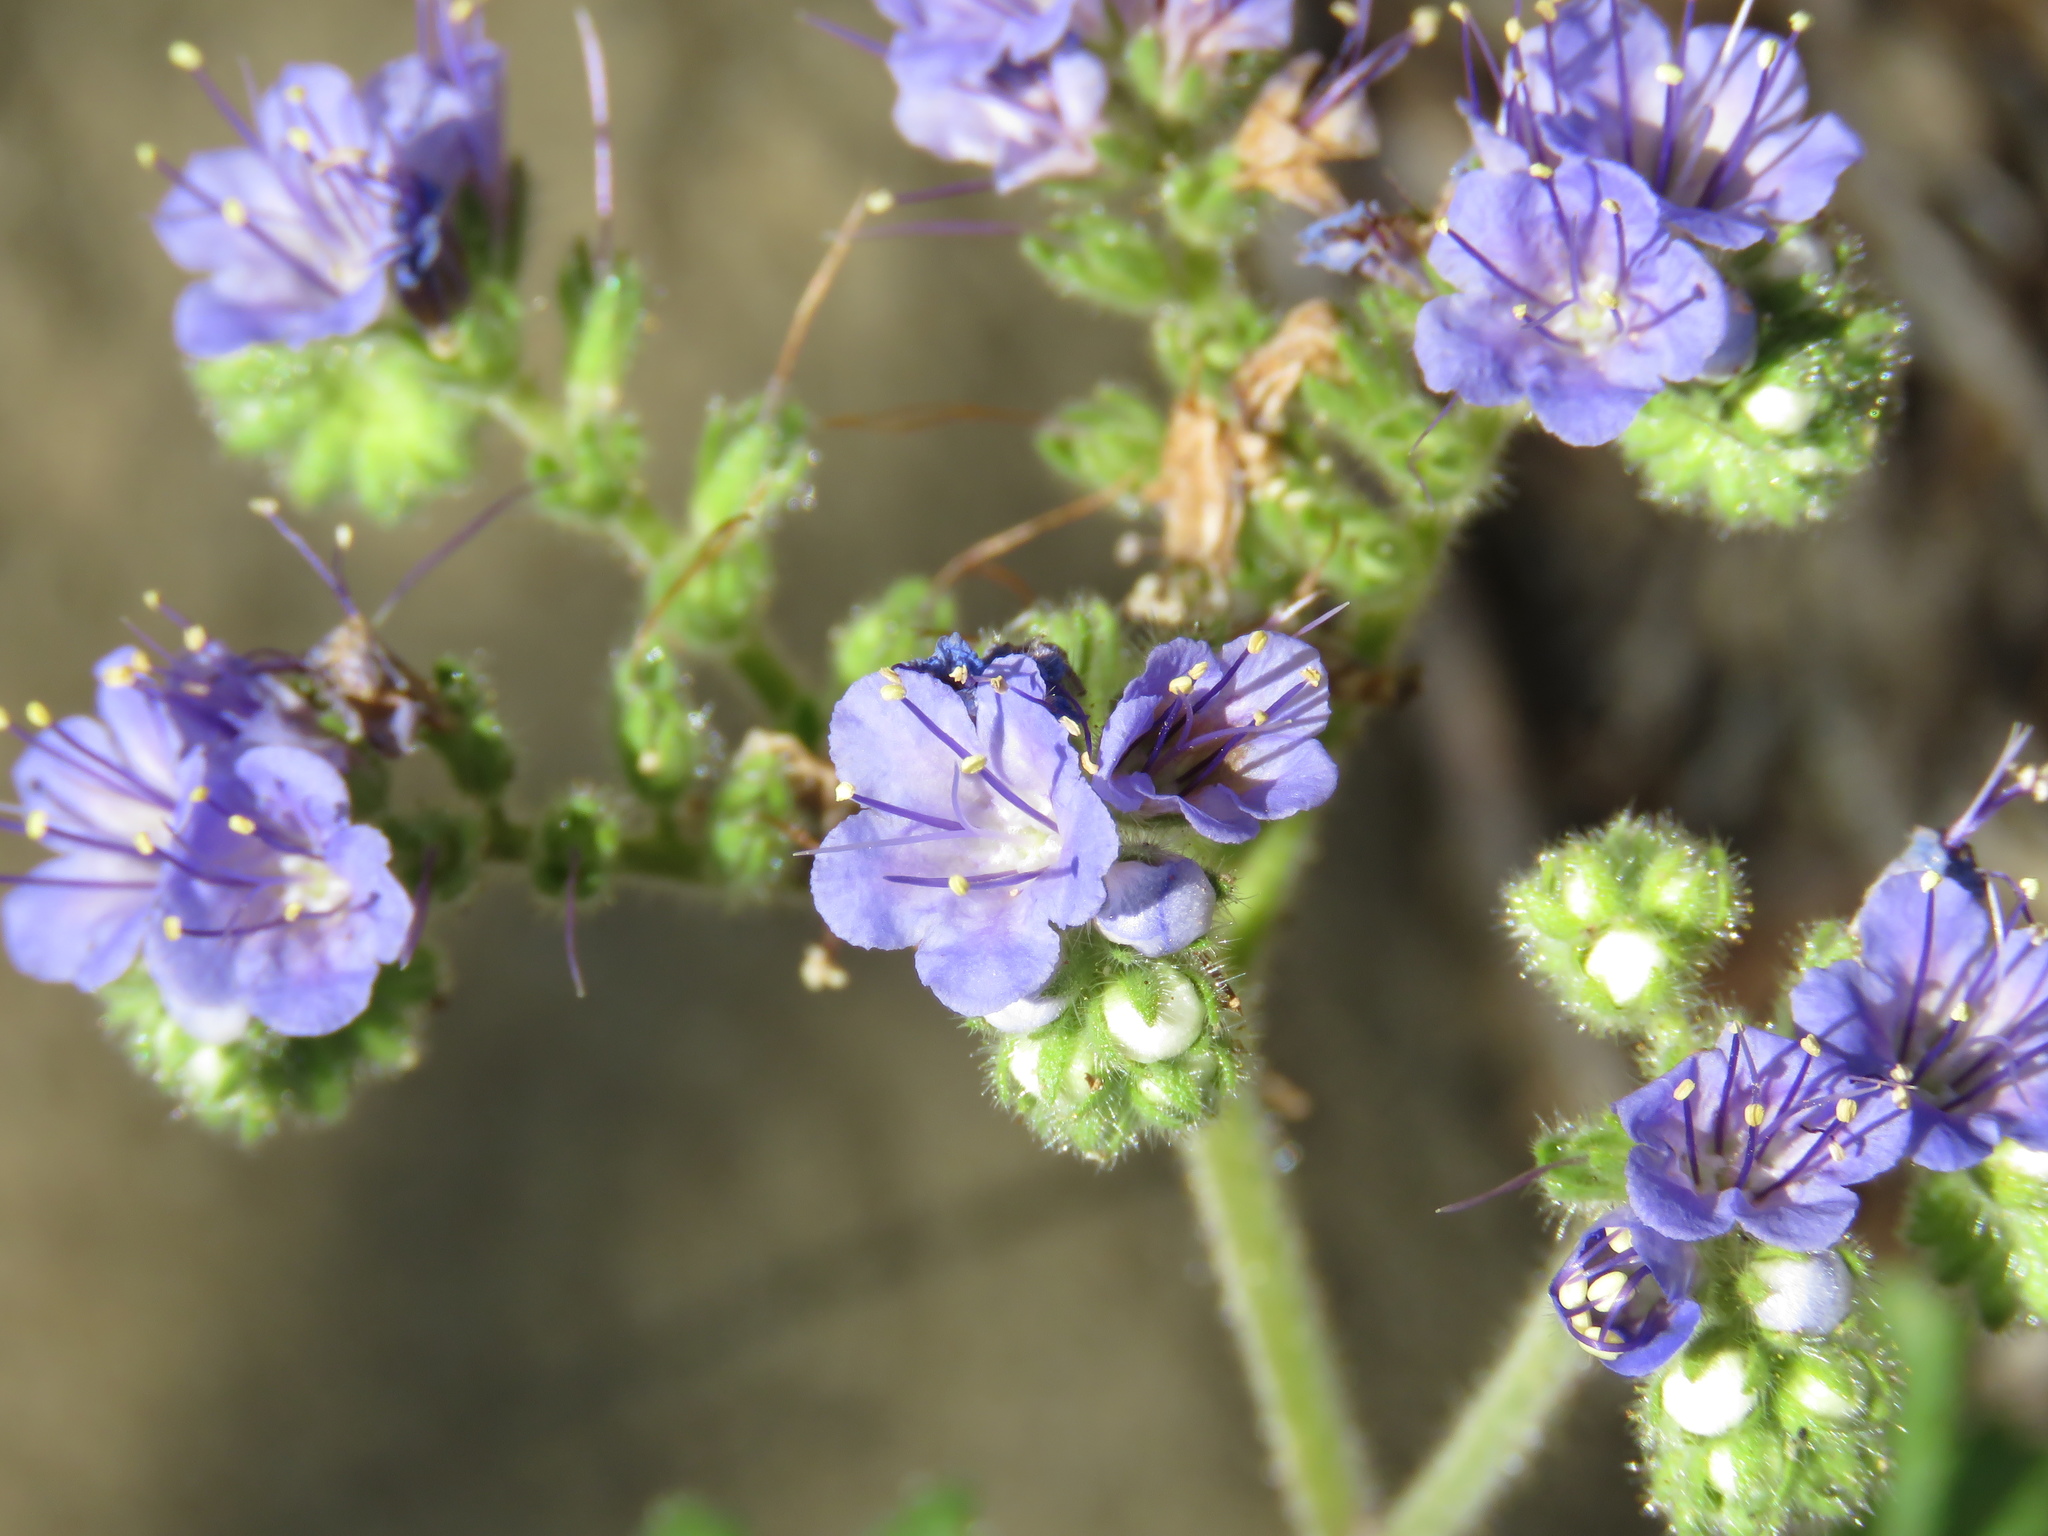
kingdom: Plantae
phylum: Tracheophyta
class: Magnoliopsida
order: Boraginales
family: Hydrophyllaceae
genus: Phacelia
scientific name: Phacelia congesta
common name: Blue curls
